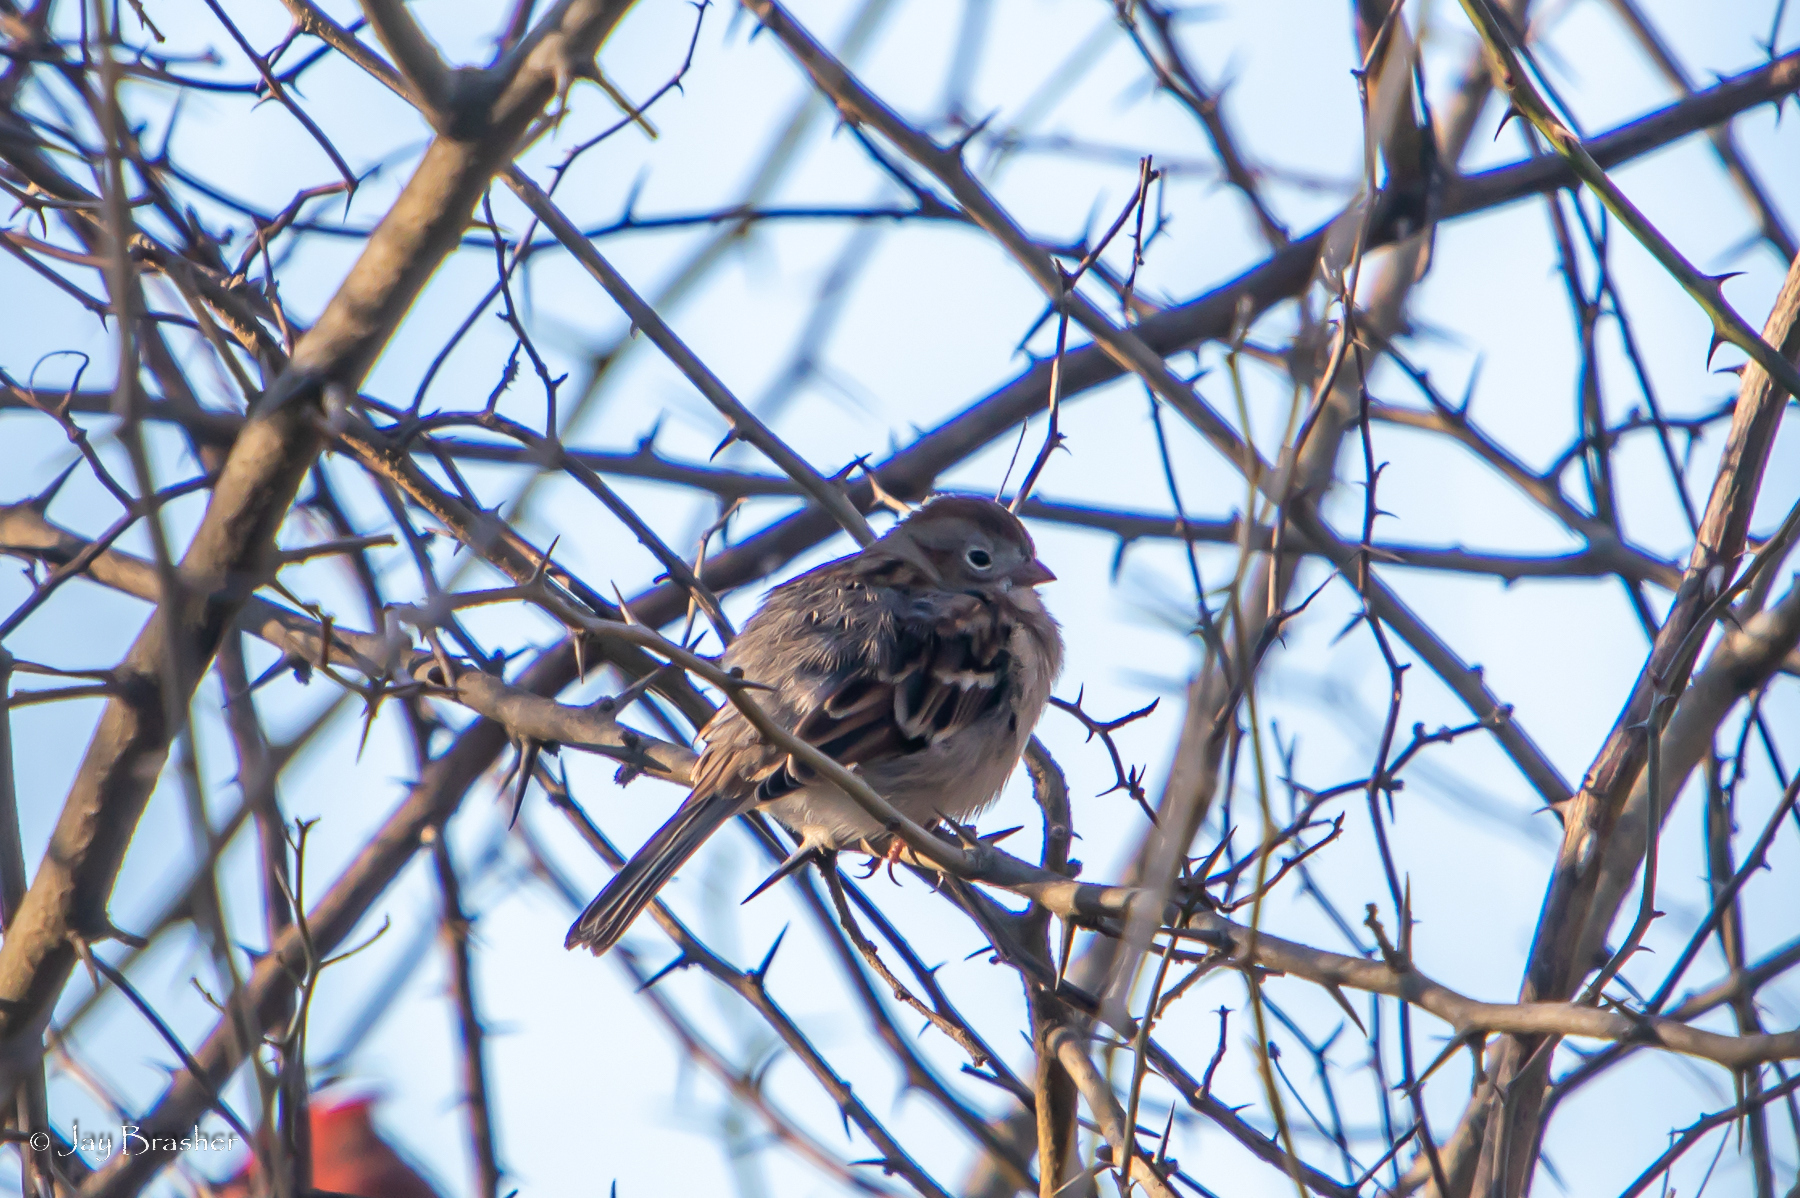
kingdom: Animalia
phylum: Chordata
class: Aves
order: Passeriformes
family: Passerellidae
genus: Spizella
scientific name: Spizella pusilla
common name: Field sparrow
